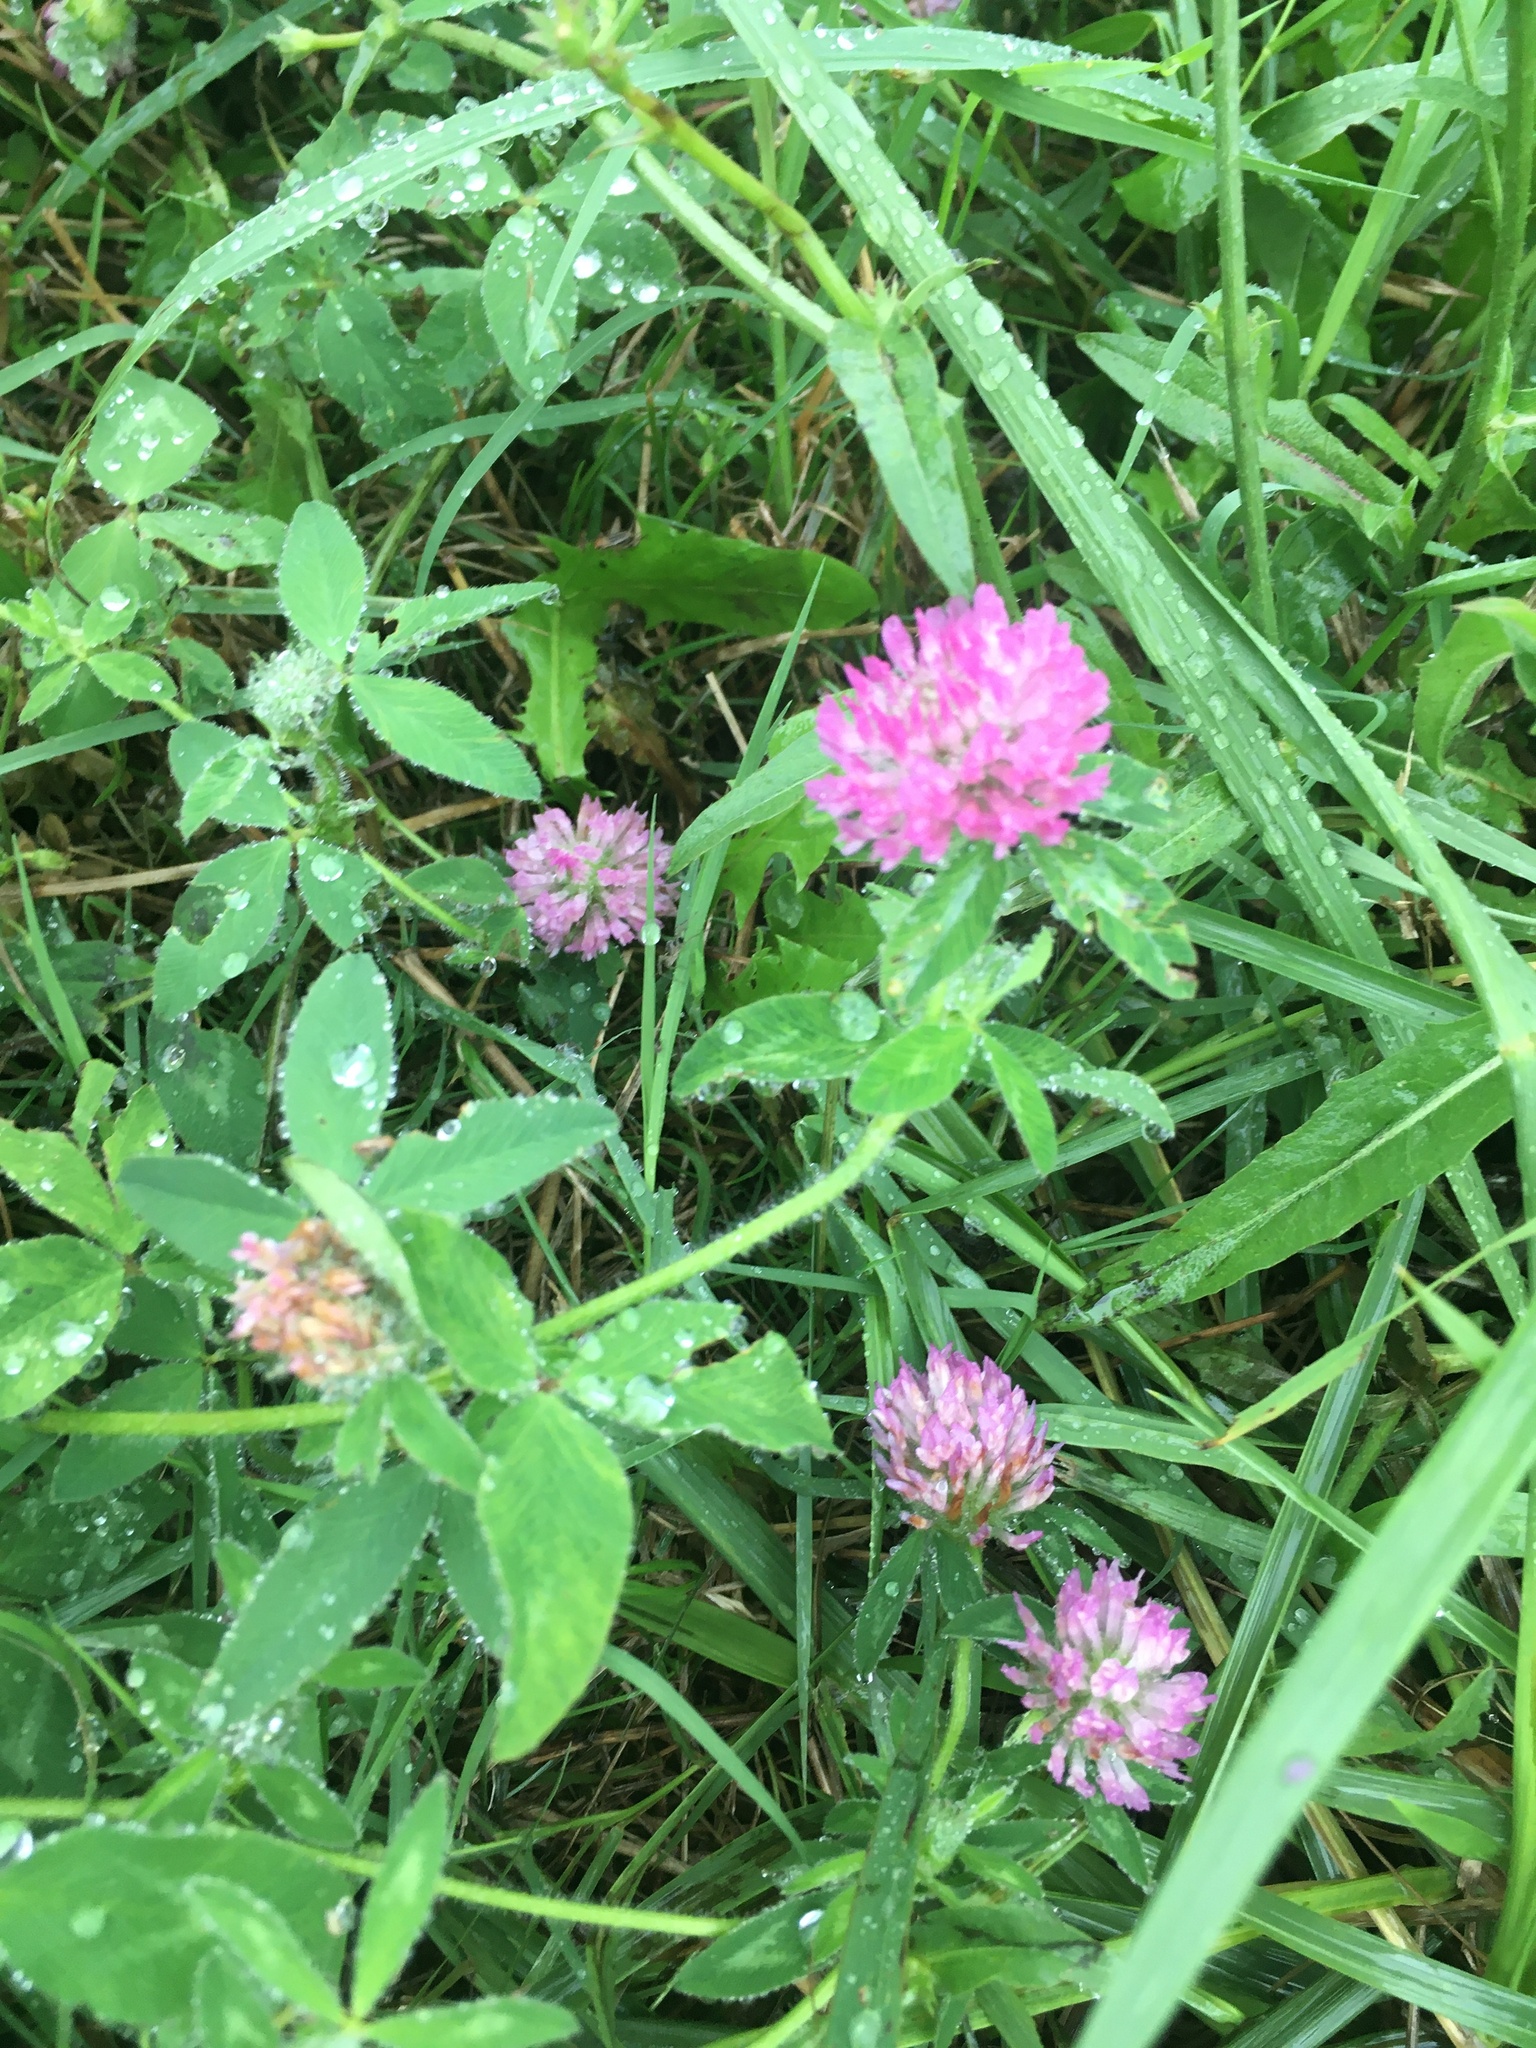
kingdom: Plantae
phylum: Tracheophyta
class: Magnoliopsida
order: Fabales
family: Fabaceae
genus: Trifolium
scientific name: Trifolium pratense
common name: Red clover
